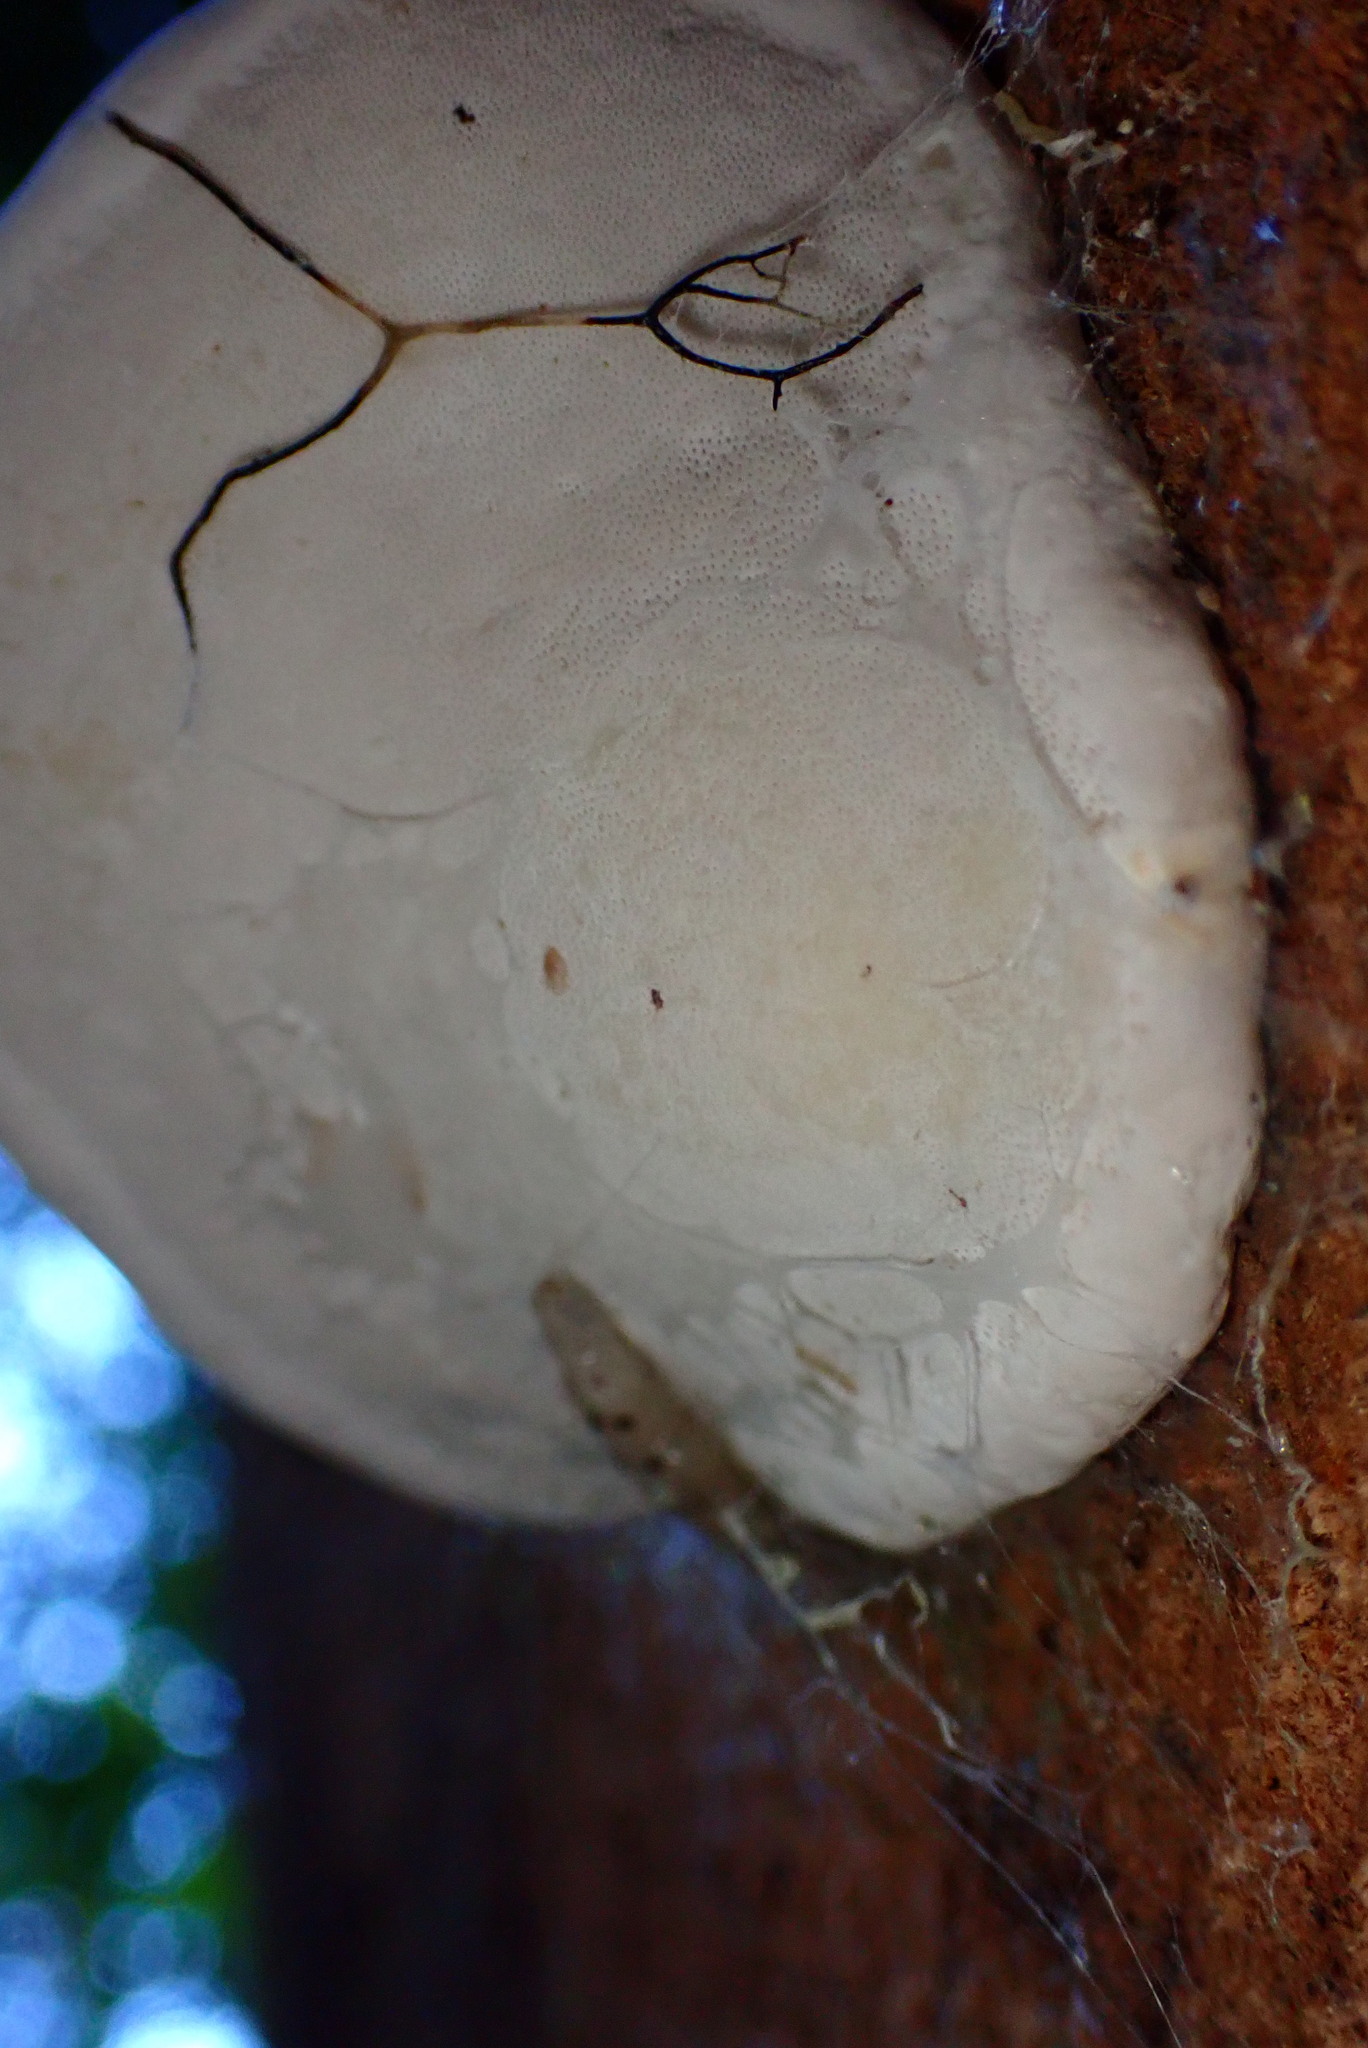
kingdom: Fungi
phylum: Basidiomycota
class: Agaricomycetes
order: Polyporales
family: Fomitopsidaceae
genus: Fomitopsis
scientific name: Fomitopsis ochracea
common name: American brown fomitopsis
